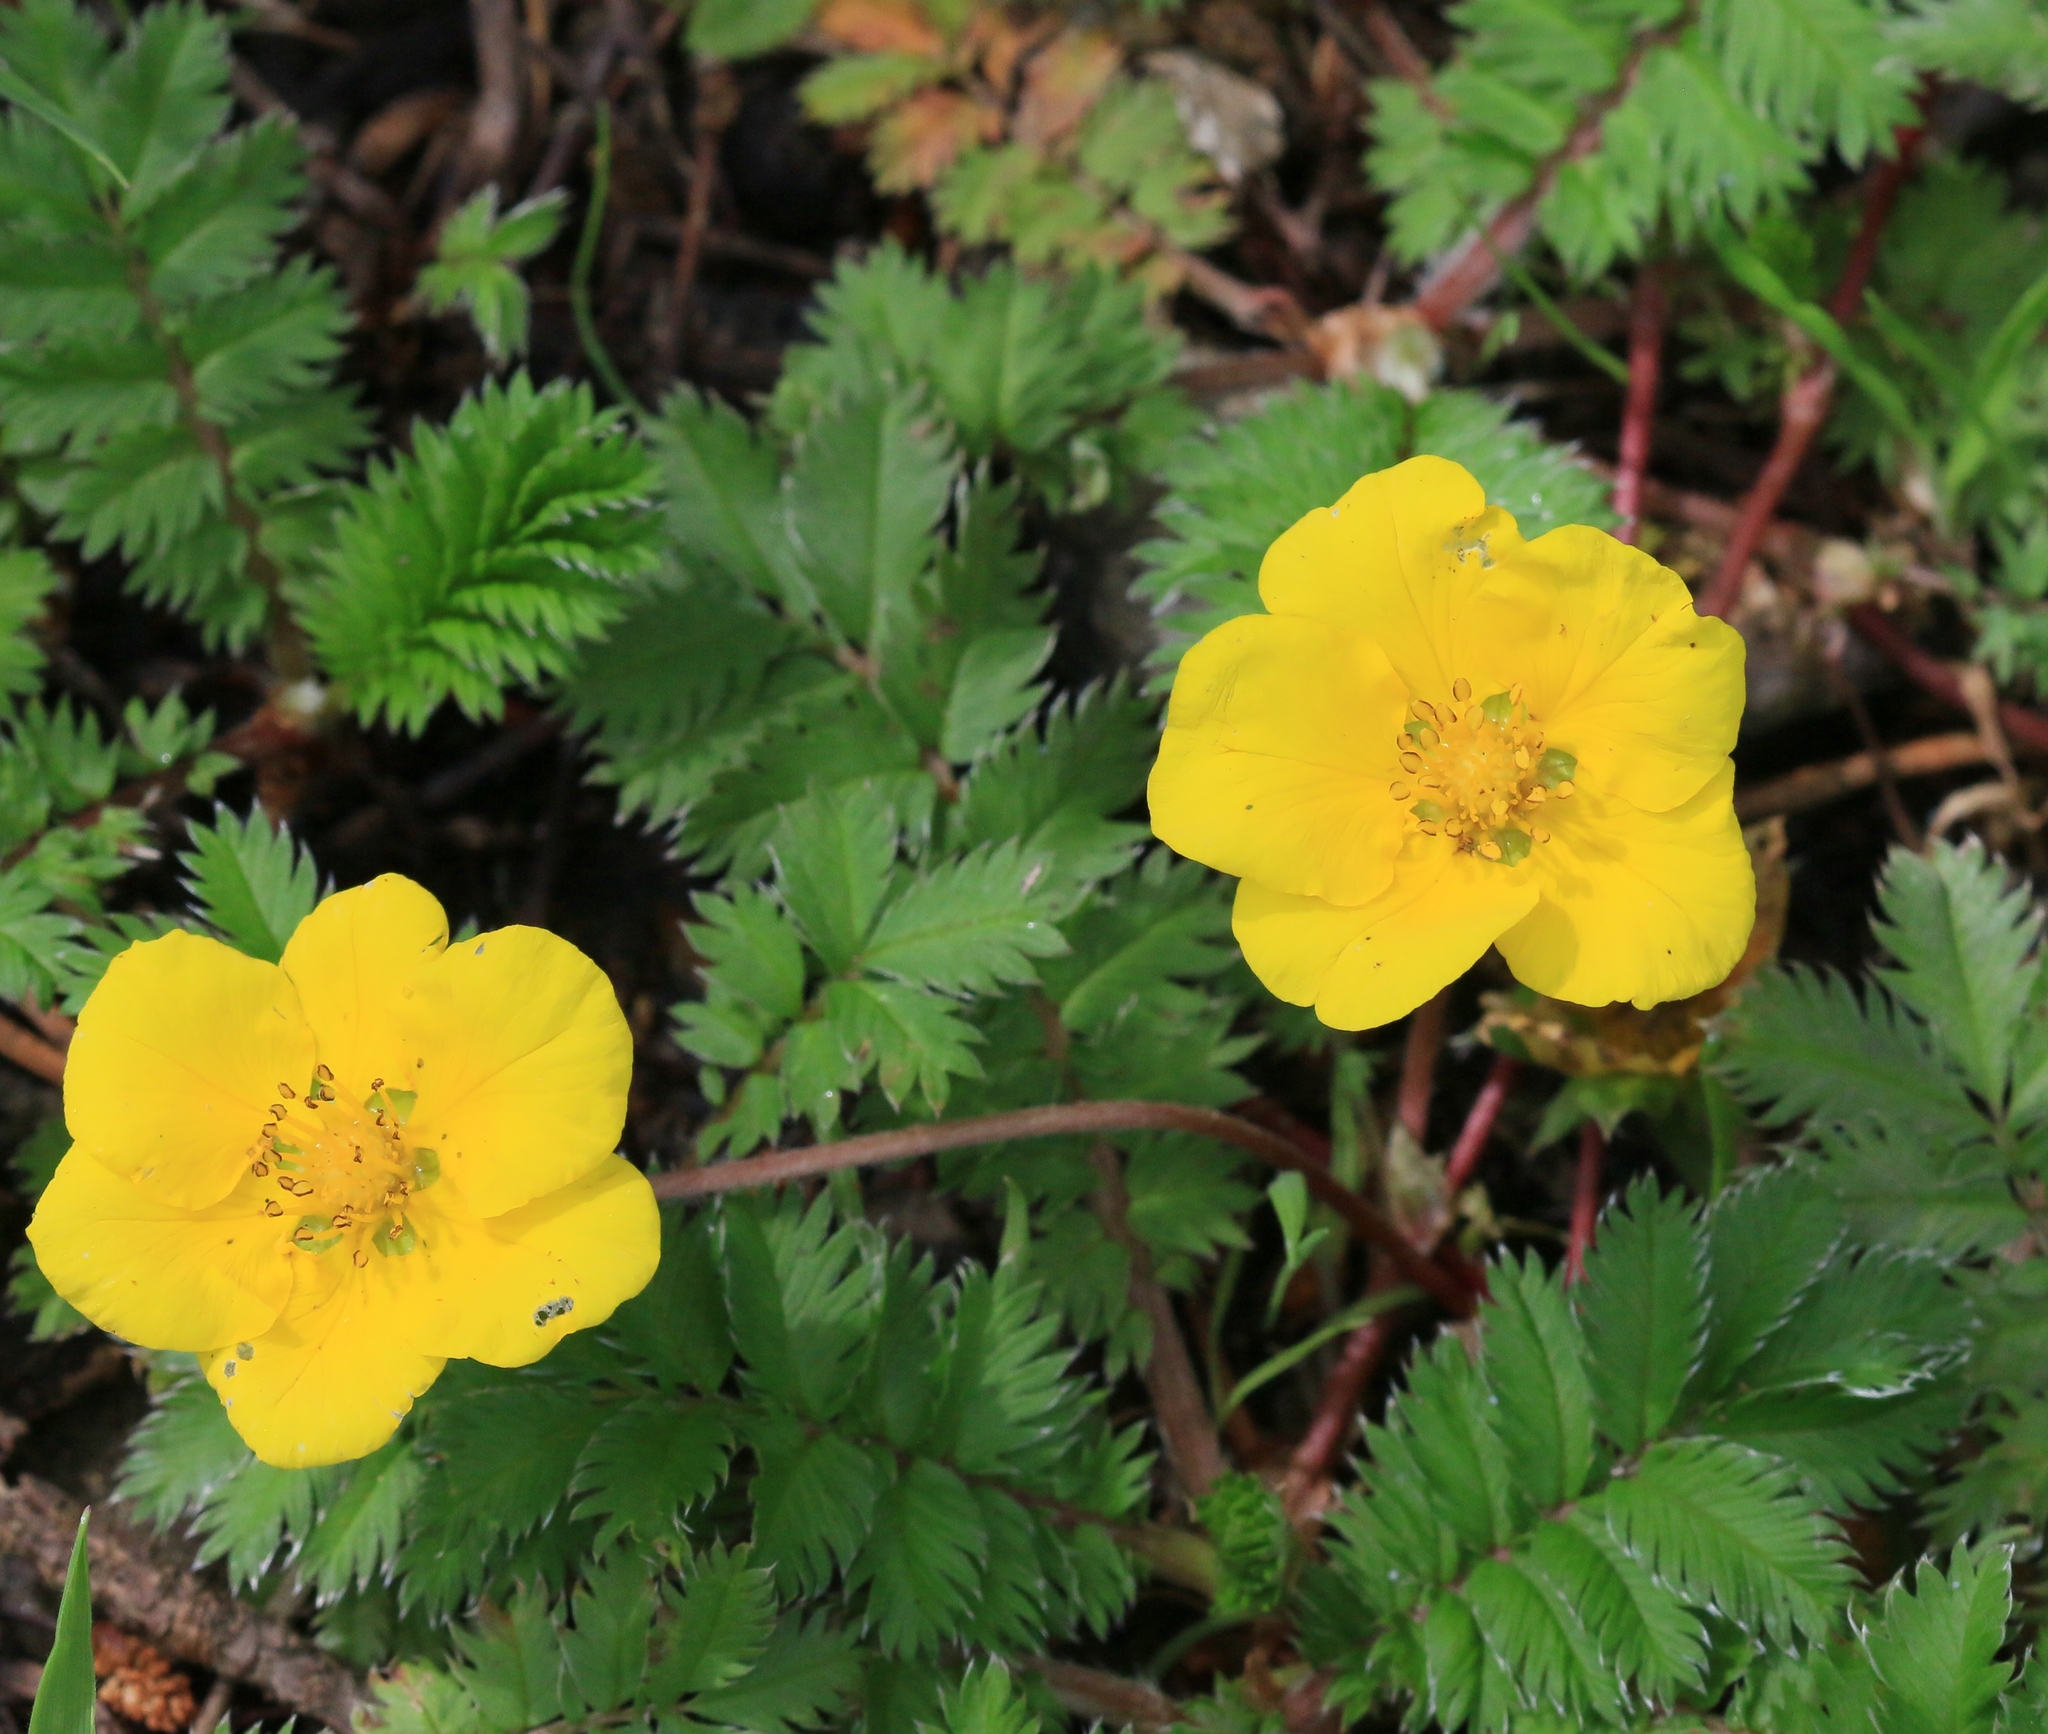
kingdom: Plantae
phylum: Tracheophyta
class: Magnoliopsida
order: Rosales
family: Rosaceae
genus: Argentina
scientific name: Argentina anserina
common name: Common silverweed
